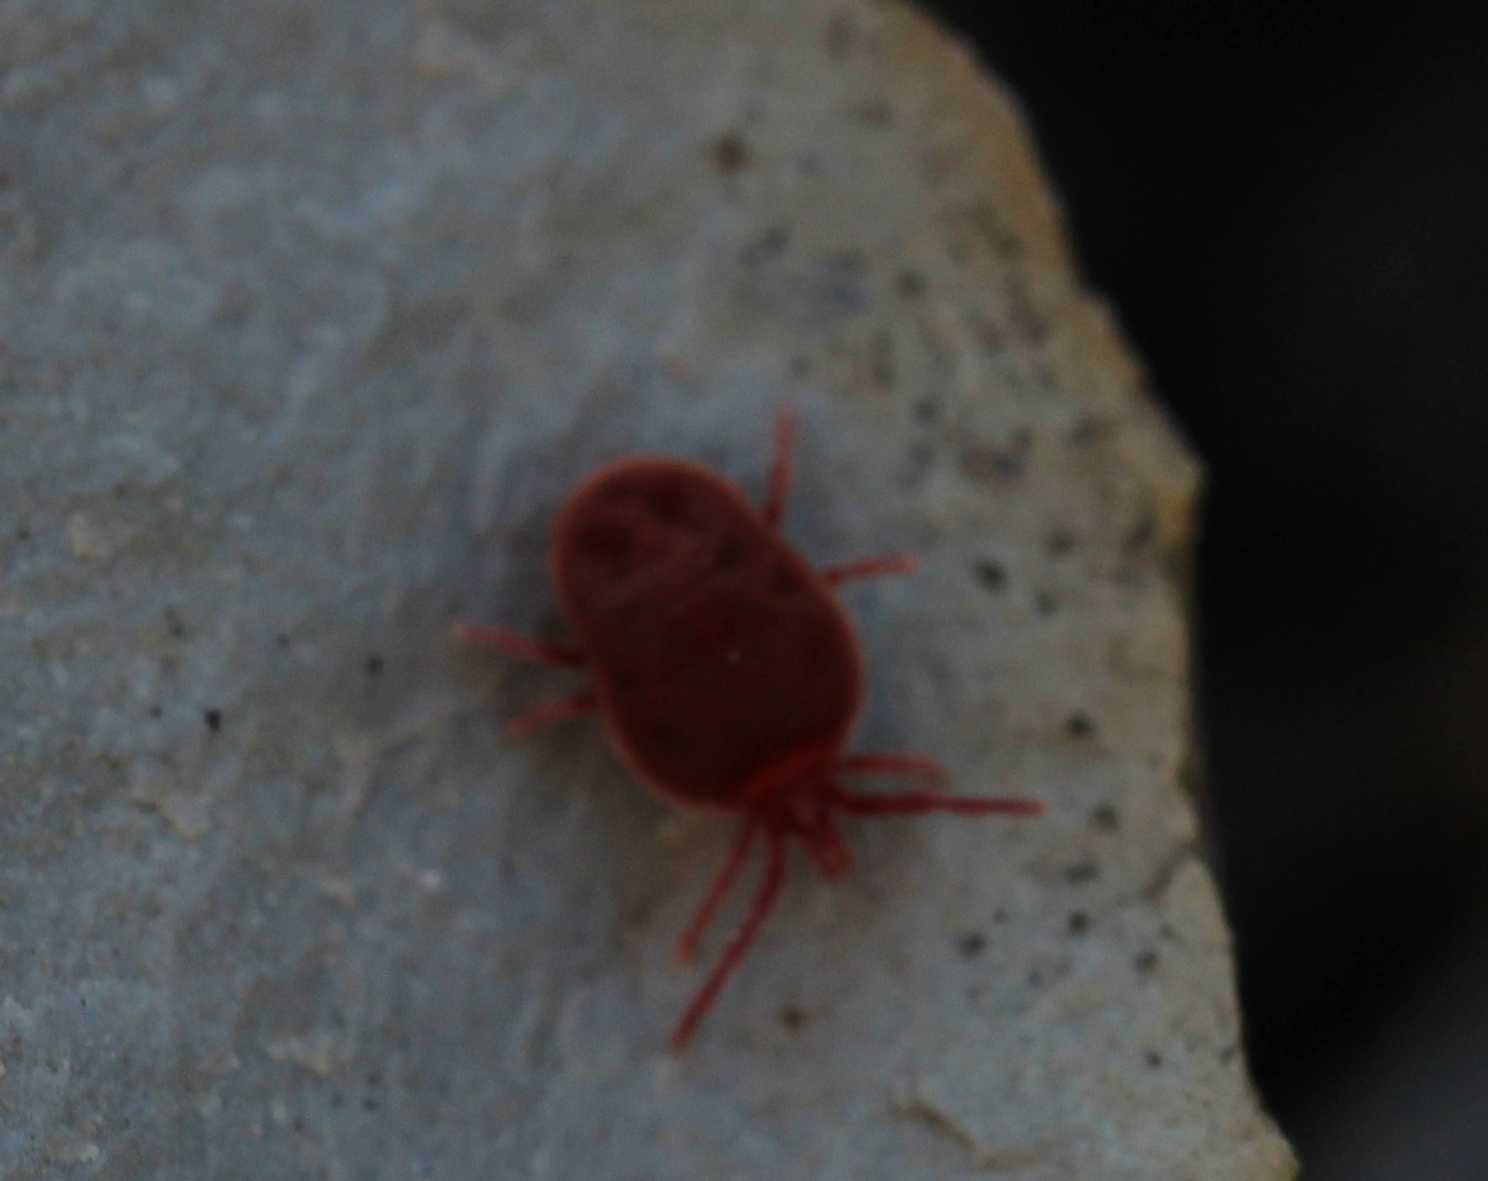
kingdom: Animalia
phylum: Arthropoda
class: Arachnida
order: Trombidiformes
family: Trombidiidae
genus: Allothrombium
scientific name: Allothrombium
